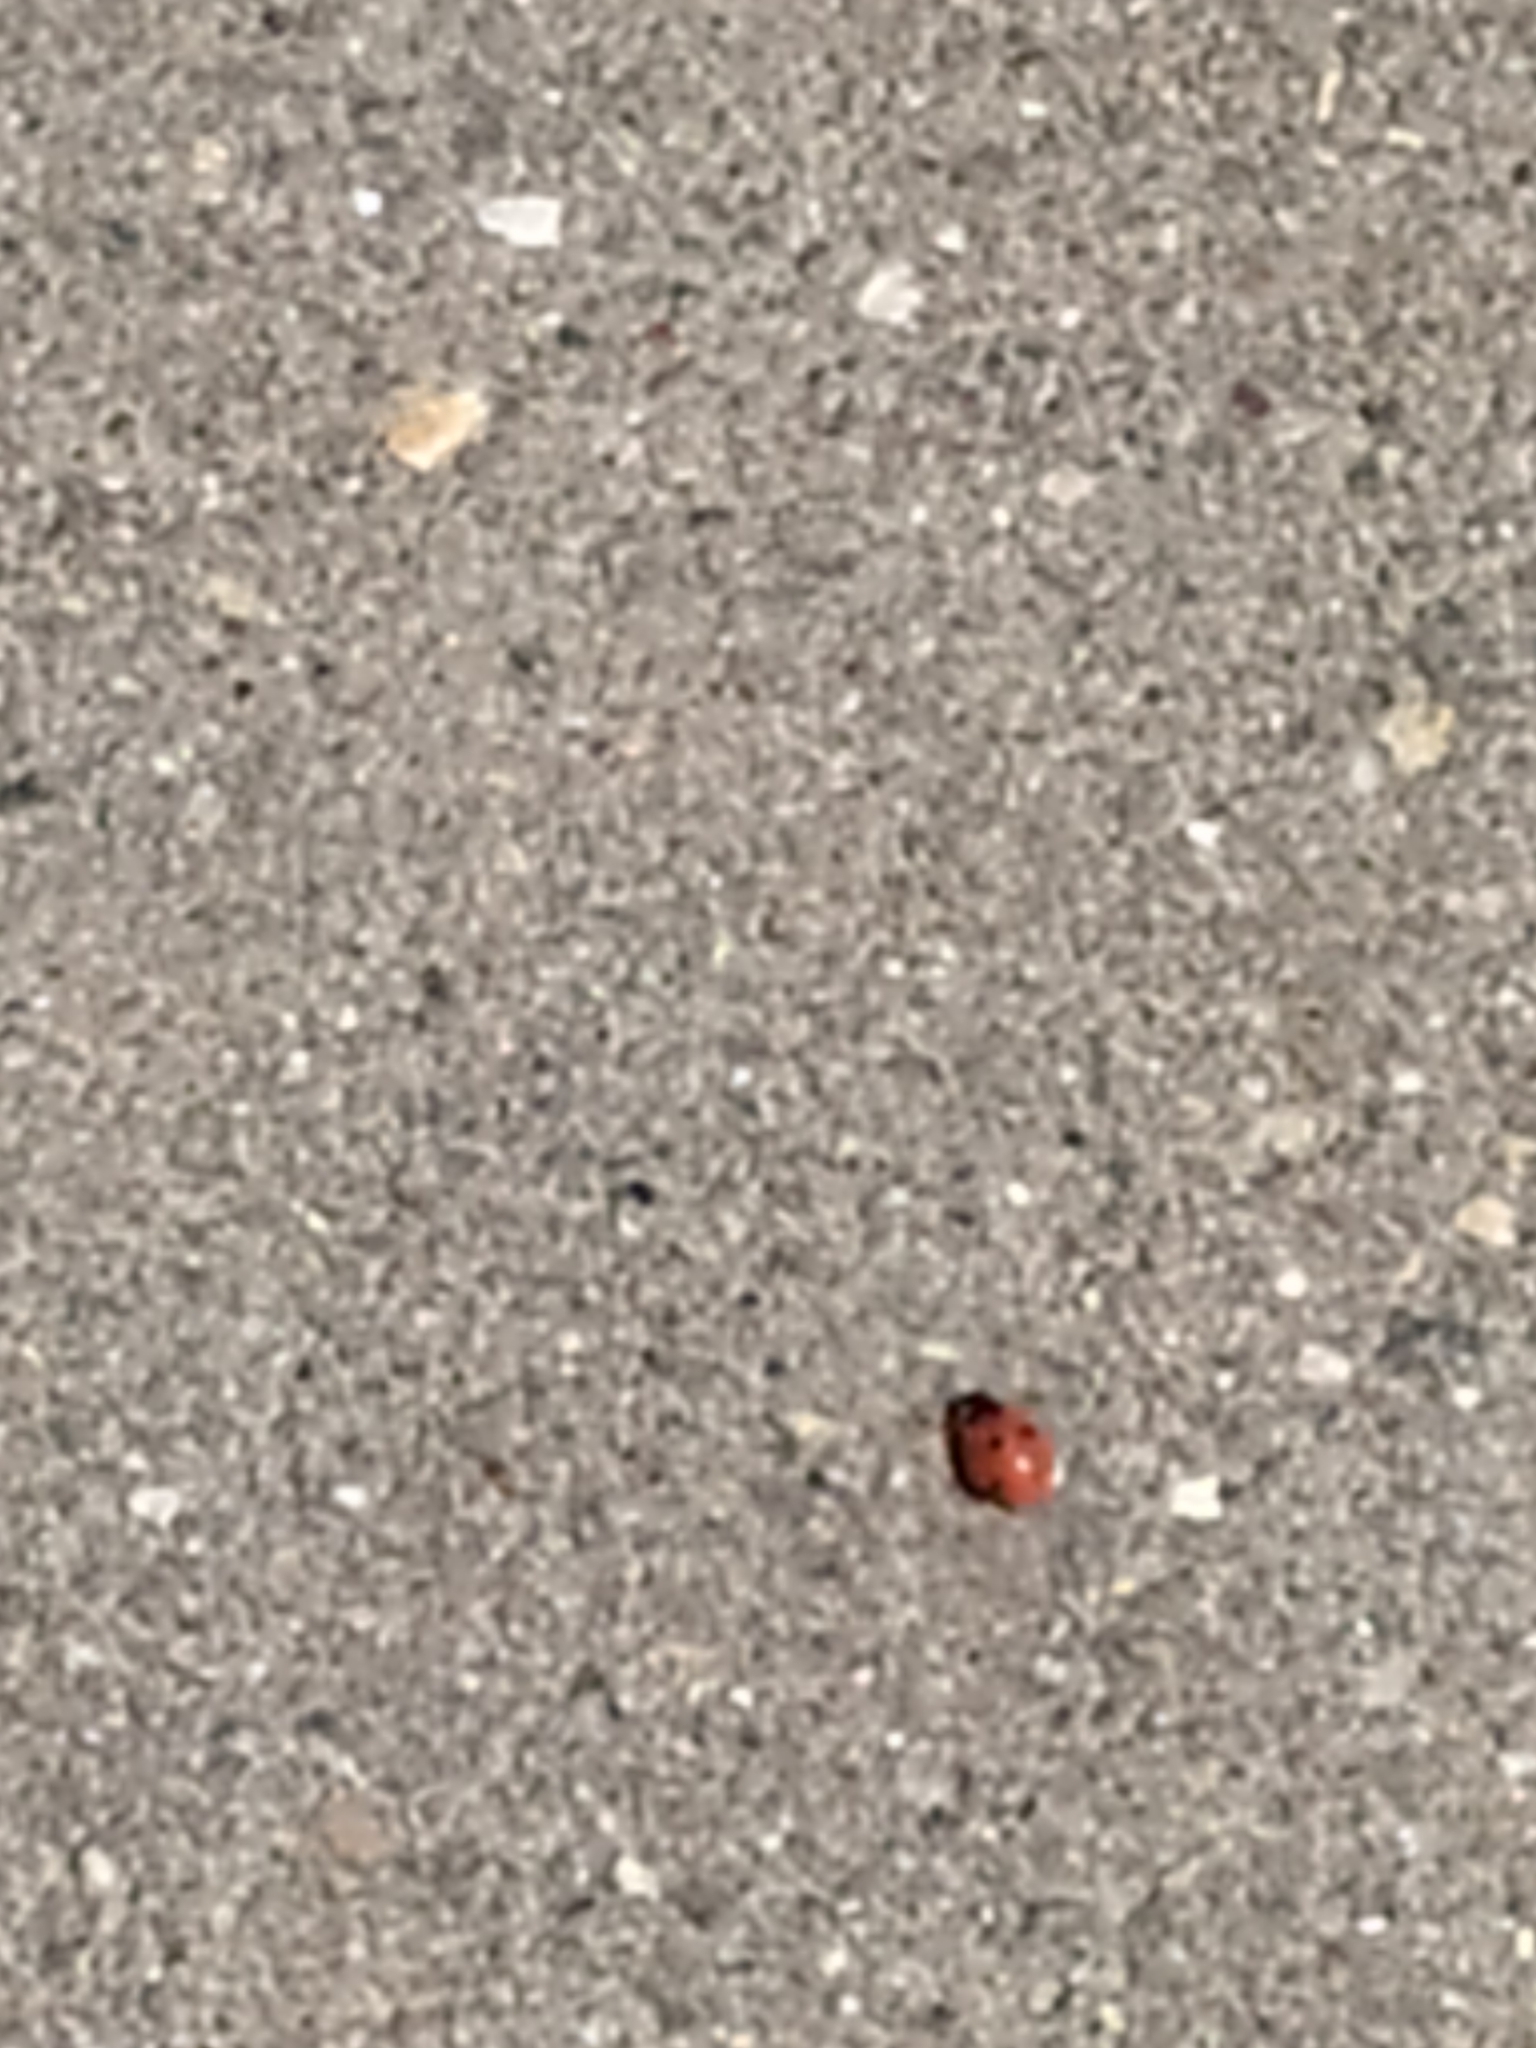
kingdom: Animalia
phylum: Arthropoda
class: Insecta
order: Coleoptera
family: Coccinellidae
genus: Coccinella
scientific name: Coccinella septempunctata
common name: Sevenspotted lady beetle
